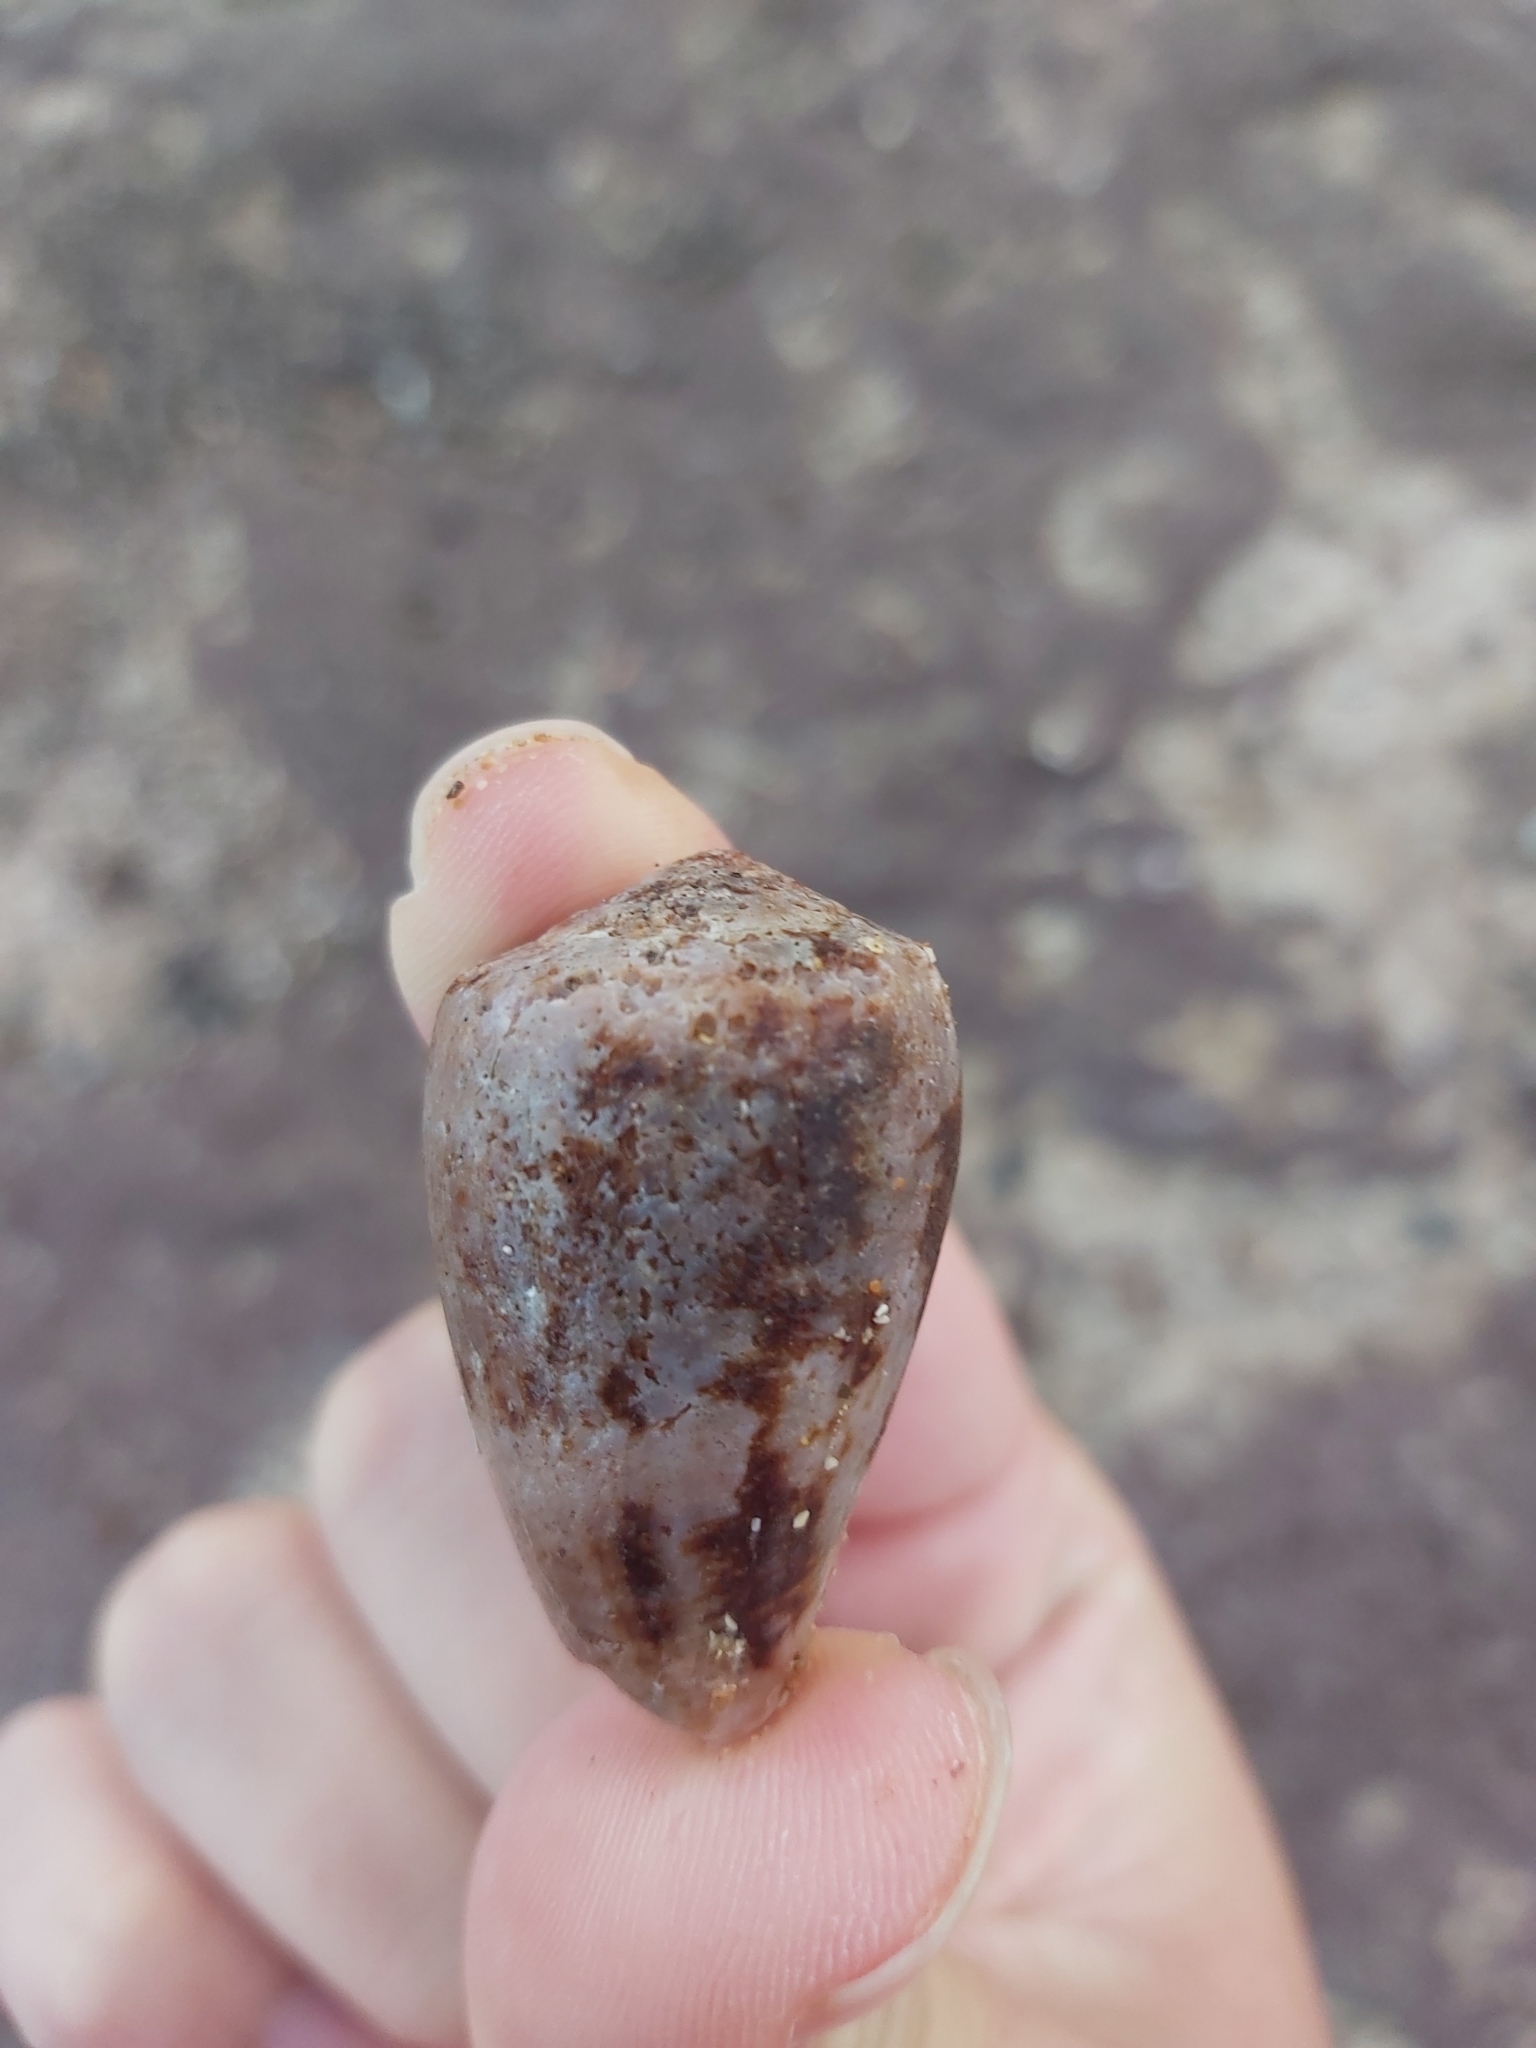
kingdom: Animalia
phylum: Mollusca
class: Gastropoda
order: Neogastropoda
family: Conidae
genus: Conus
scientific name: Conus anemone
